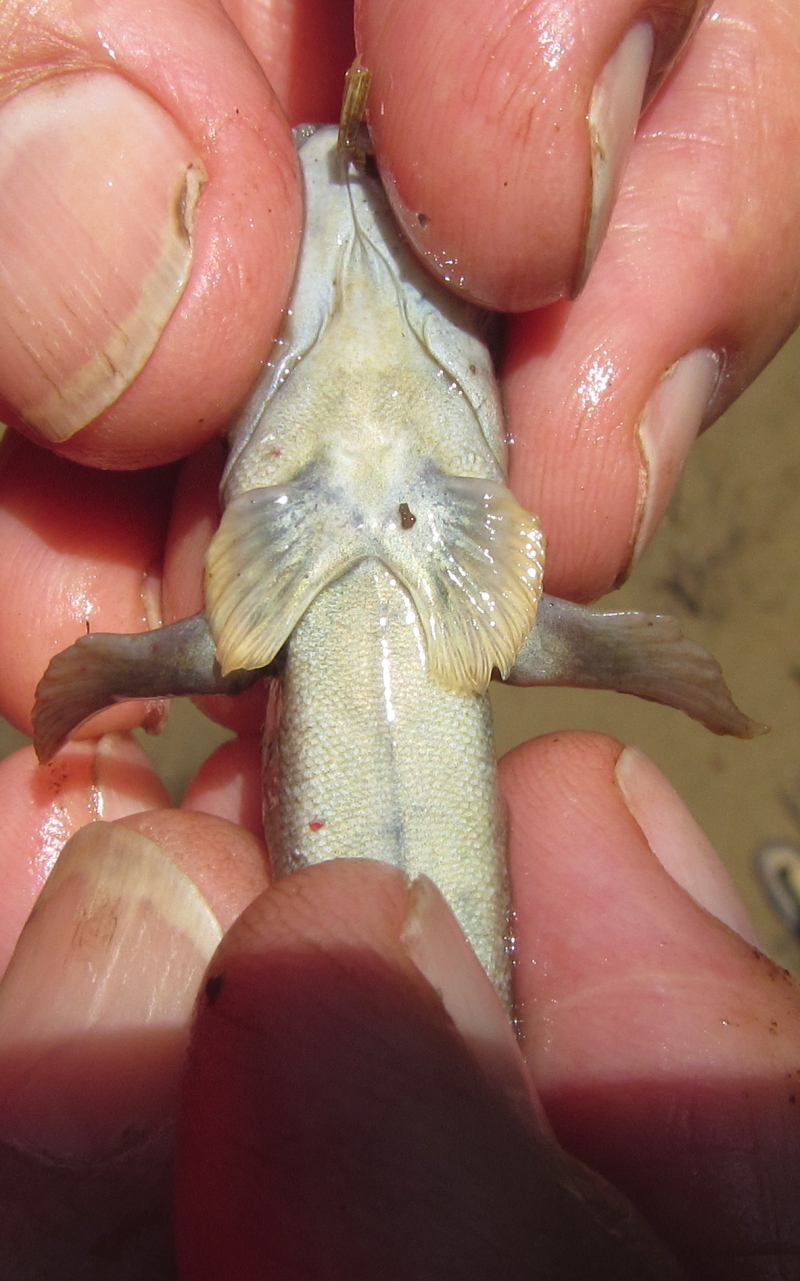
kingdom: Animalia
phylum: Chordata
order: Perciformes
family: Gobiidae
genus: Periophthalmus
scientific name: Periophthalmus argentilineatus
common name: Barred mudskipper
